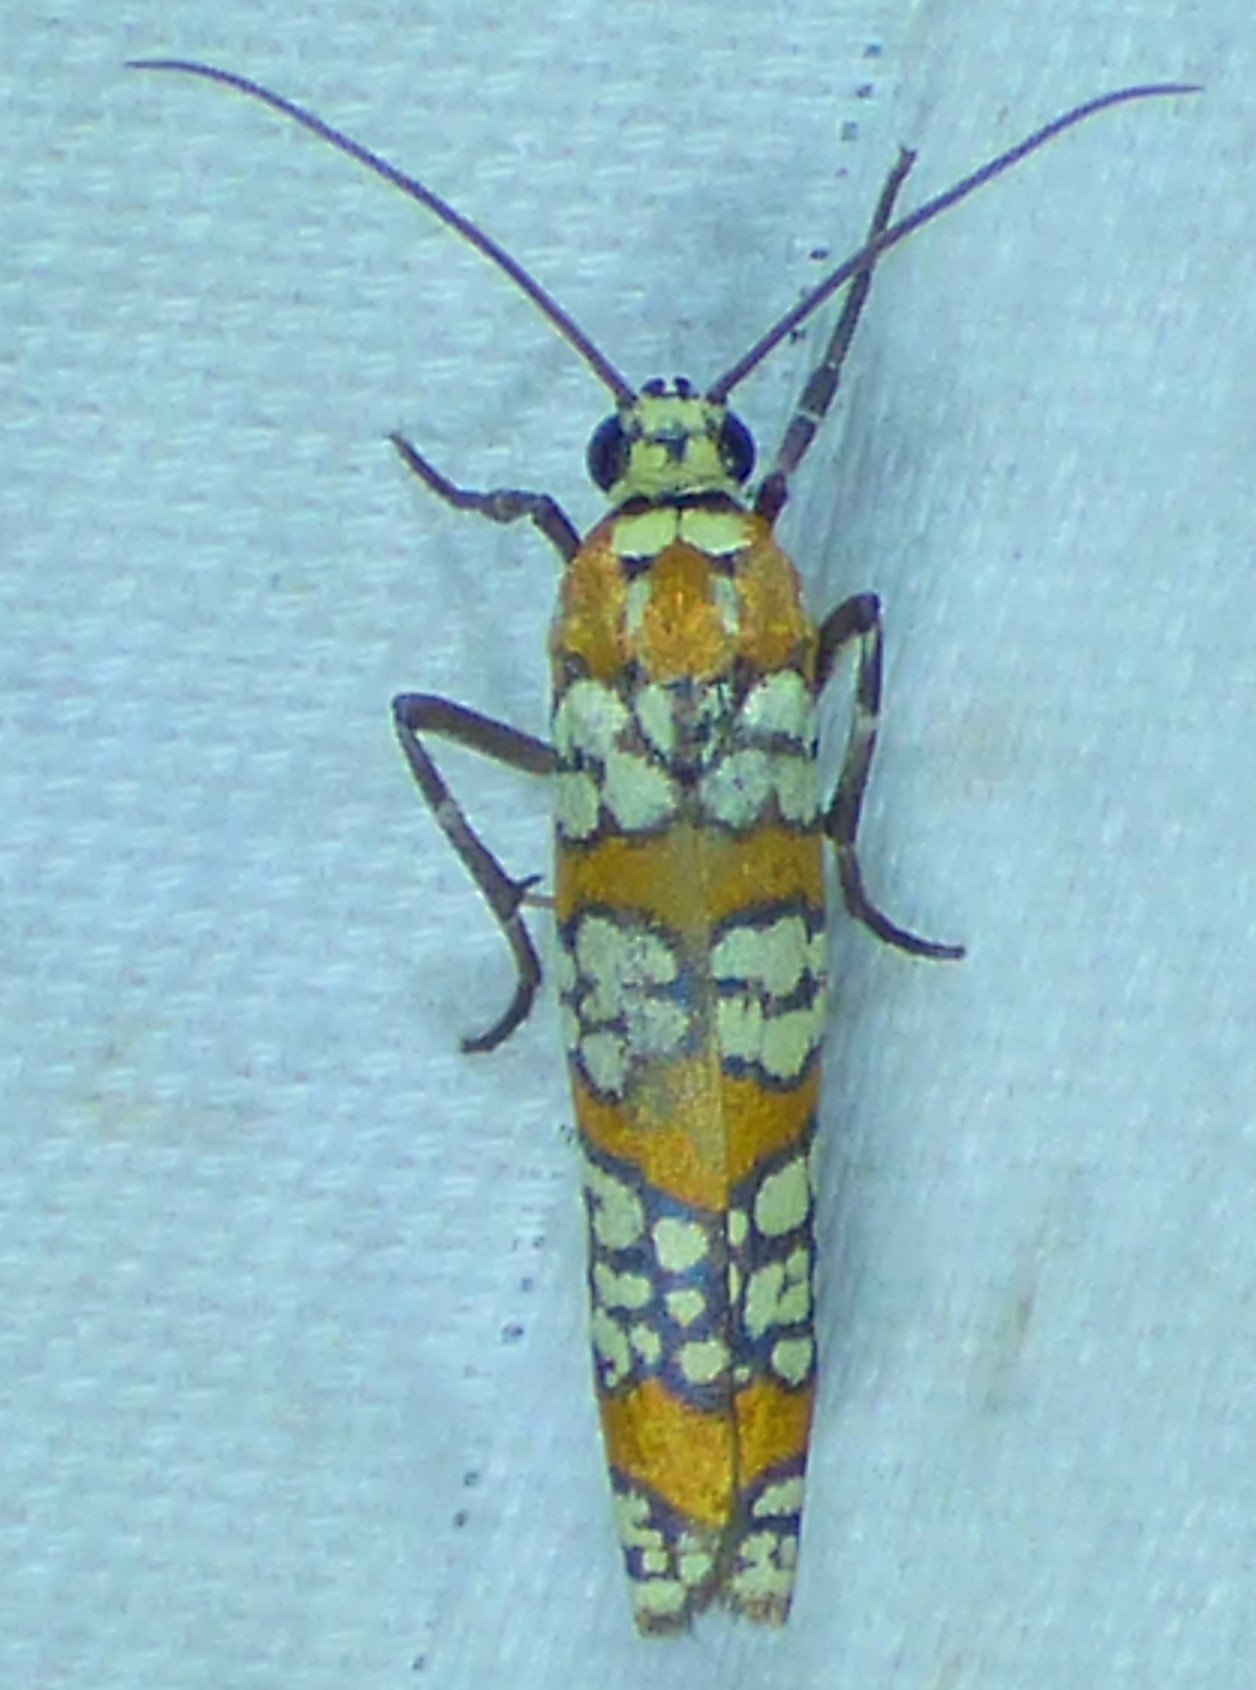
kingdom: Animalia
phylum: Arthropoda
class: Insecta
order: Lepidoptera
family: Attevidae
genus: Atteva
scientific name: Atteva punctella
